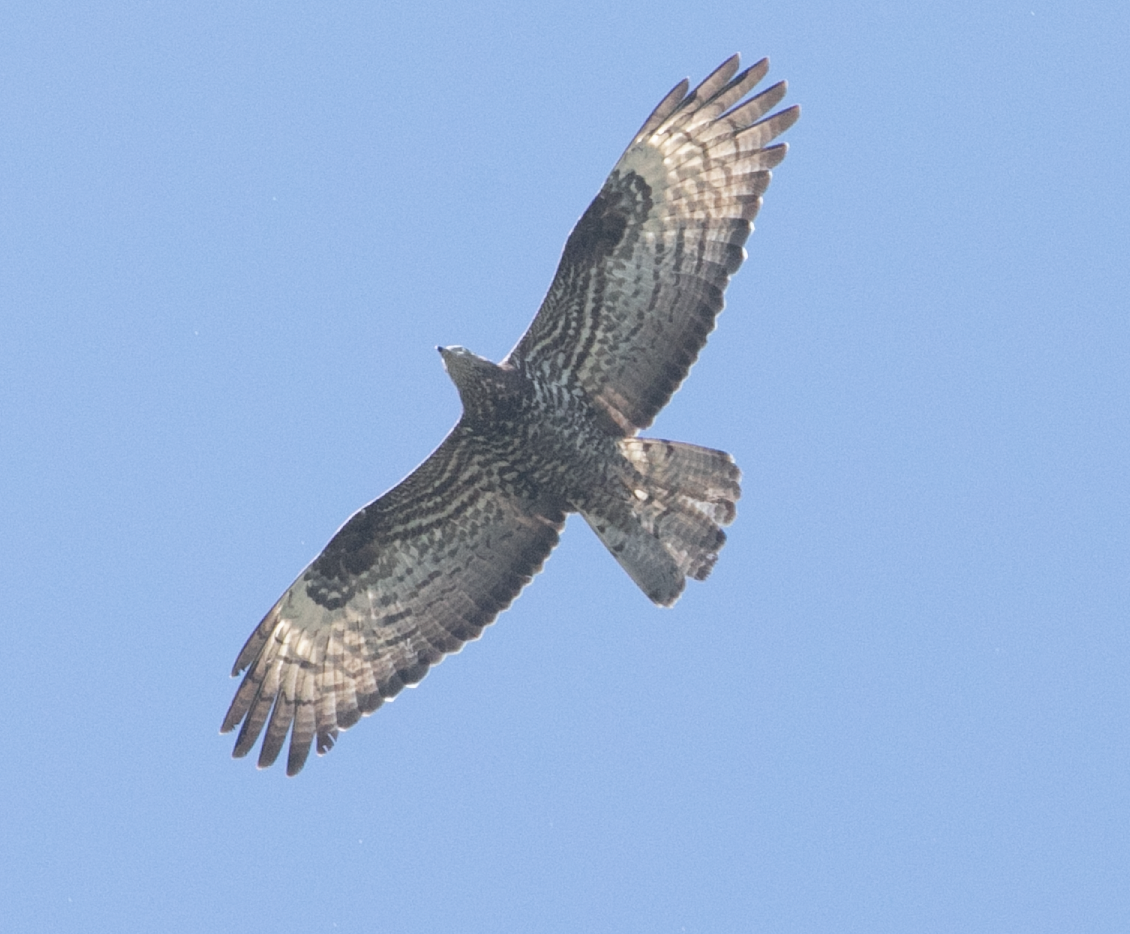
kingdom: Animalia
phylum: Chordata
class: Aves
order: Accipitriformes
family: Accipitridae
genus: Pernis
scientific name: Pernis apivorus
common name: European honey buzzard
